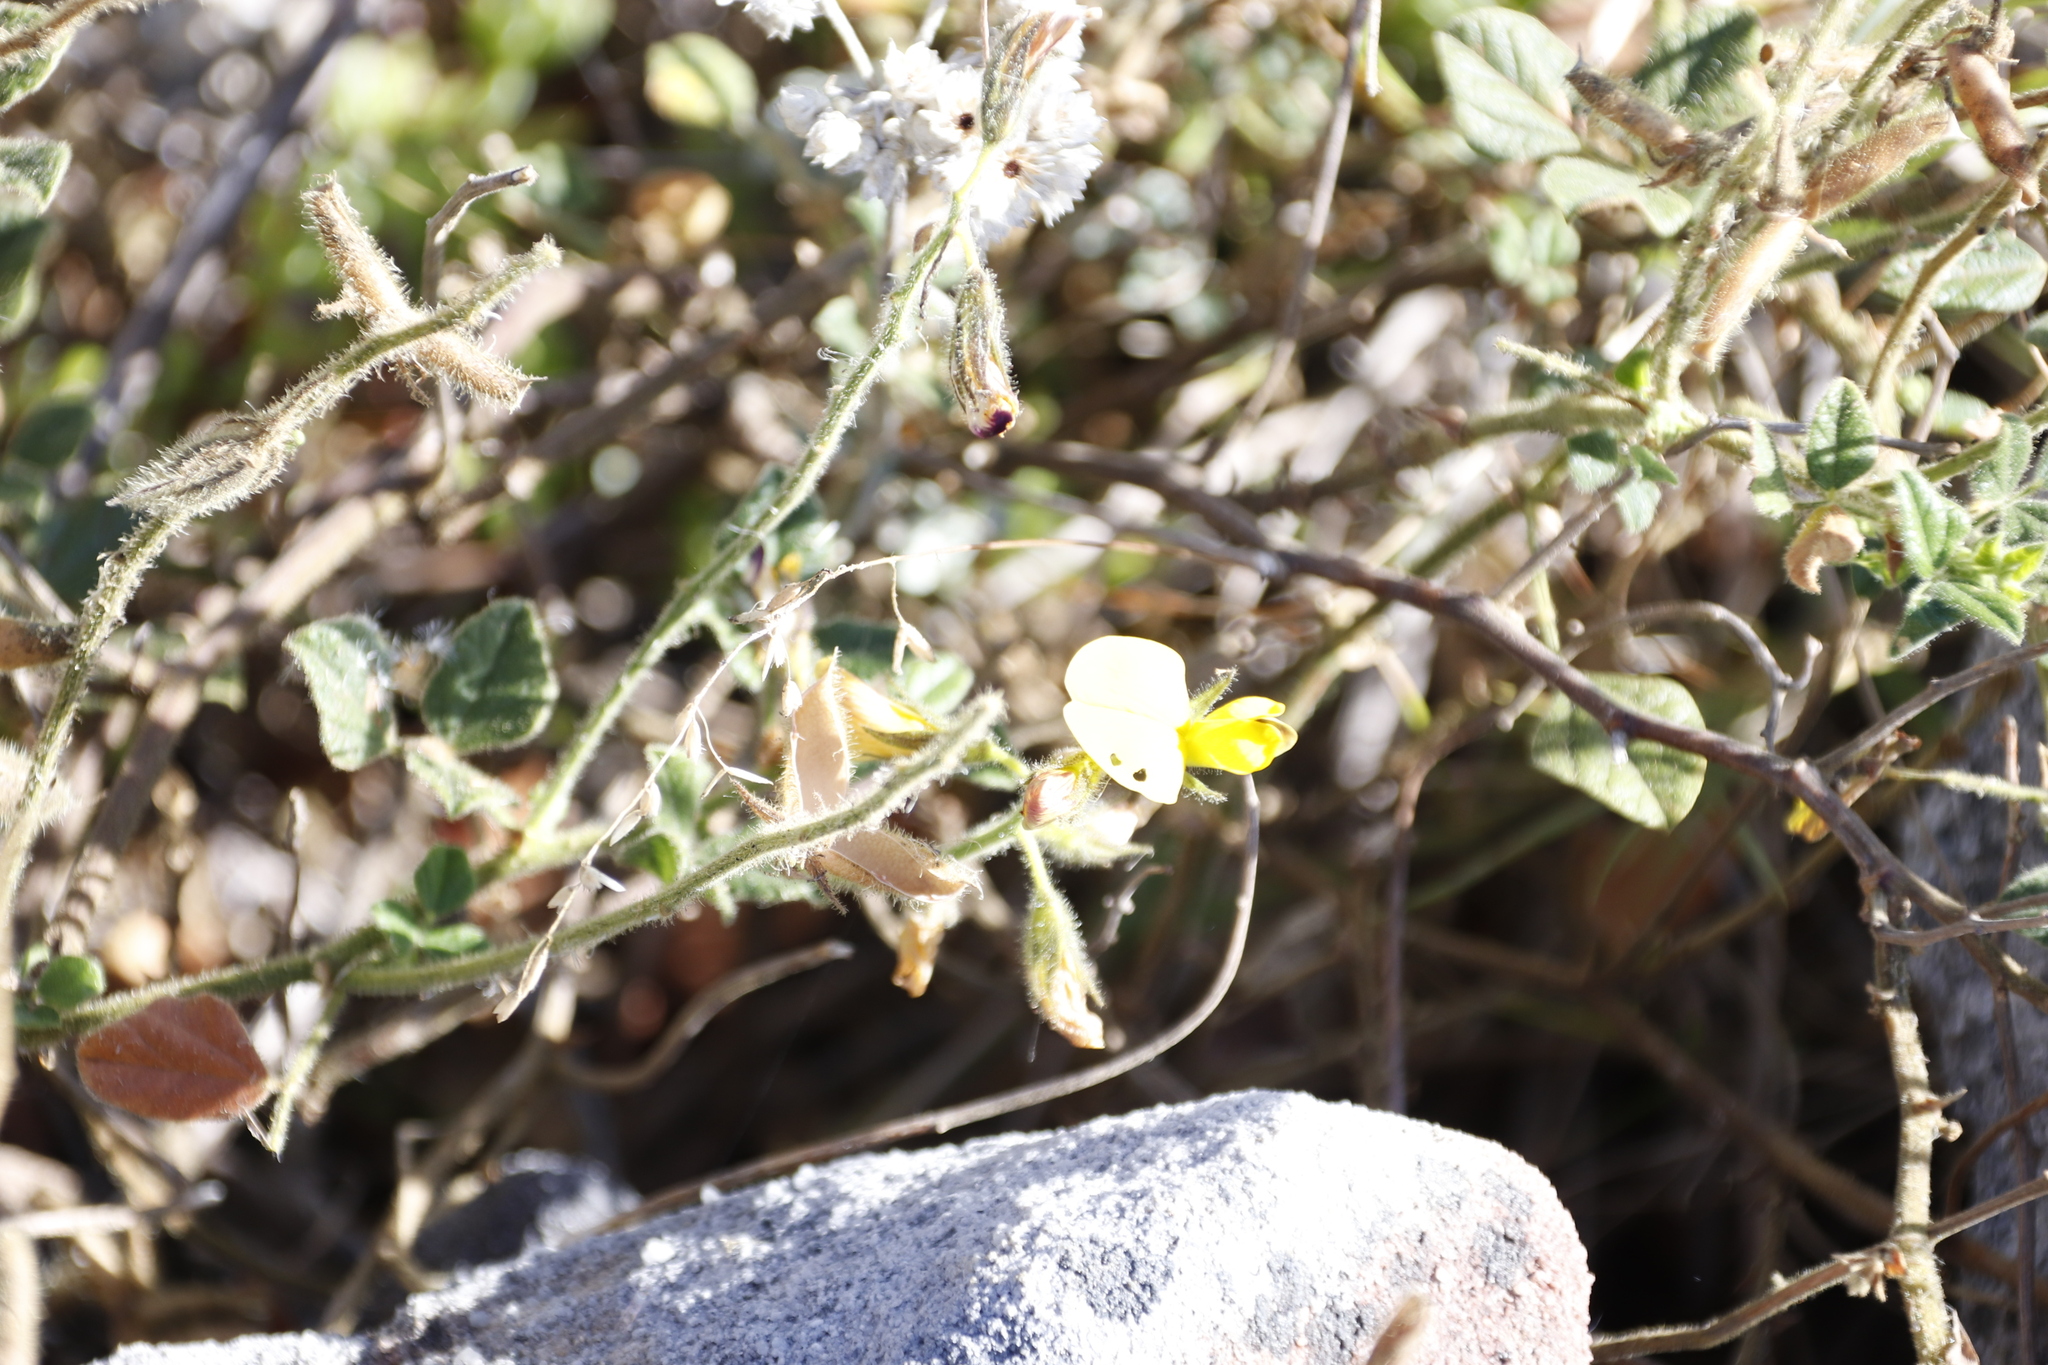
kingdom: Plantae
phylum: Tracheophyta
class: Magnoliopsida
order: Fabales
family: Fabaceae
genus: Bolusafra
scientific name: Bolusafra bituminosa
